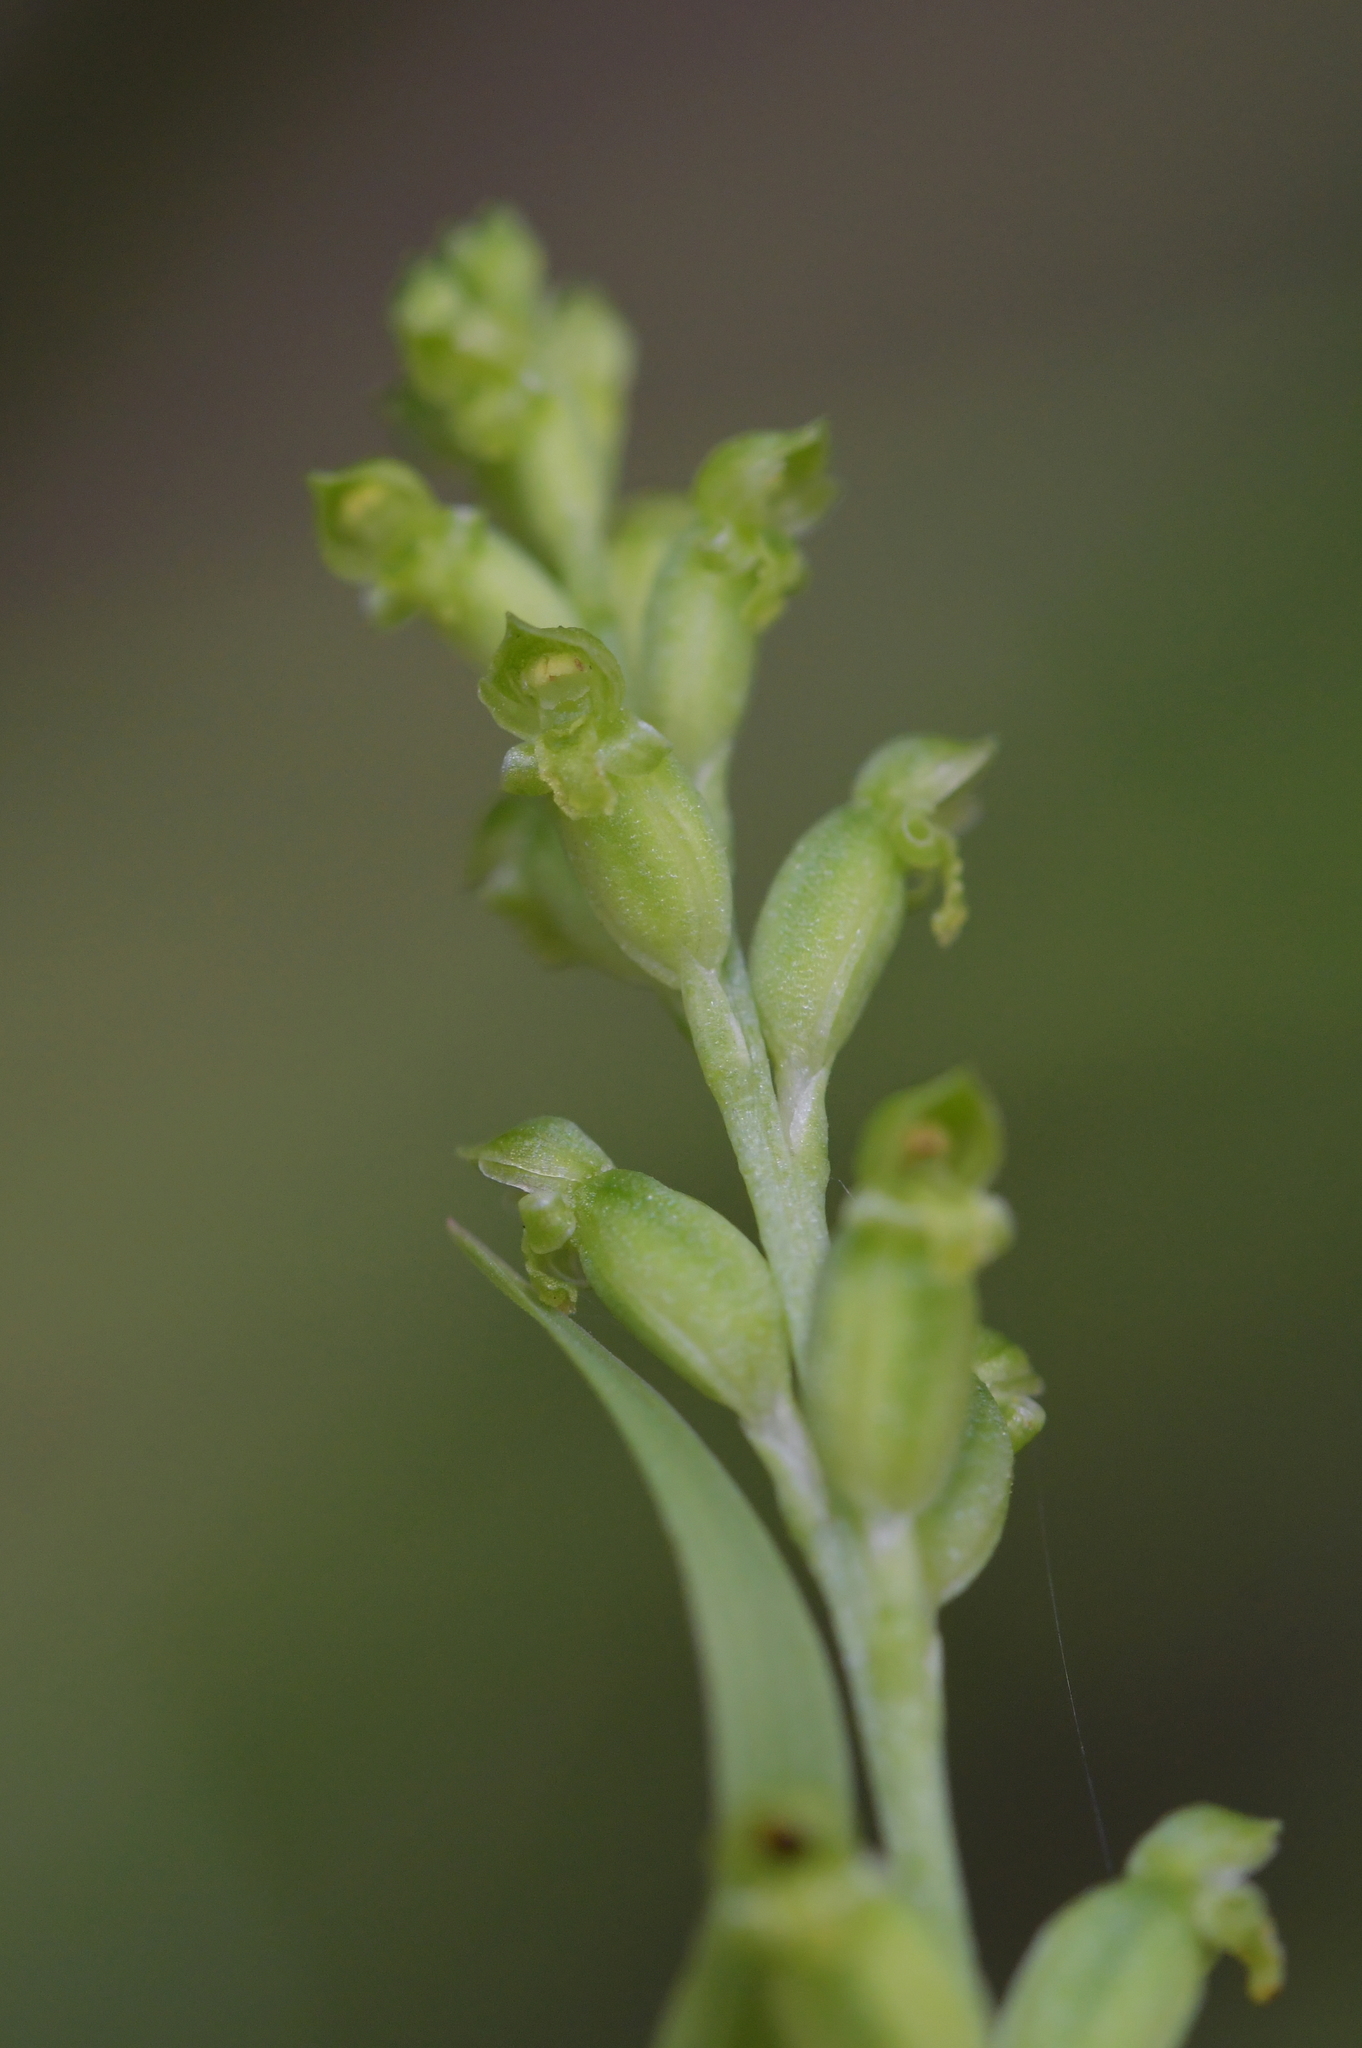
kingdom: Plantae
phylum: Tracheophyta
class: Liliopsida
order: Asparagales
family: Orchidaceae
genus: Microtis
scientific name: Microtis unifolia
